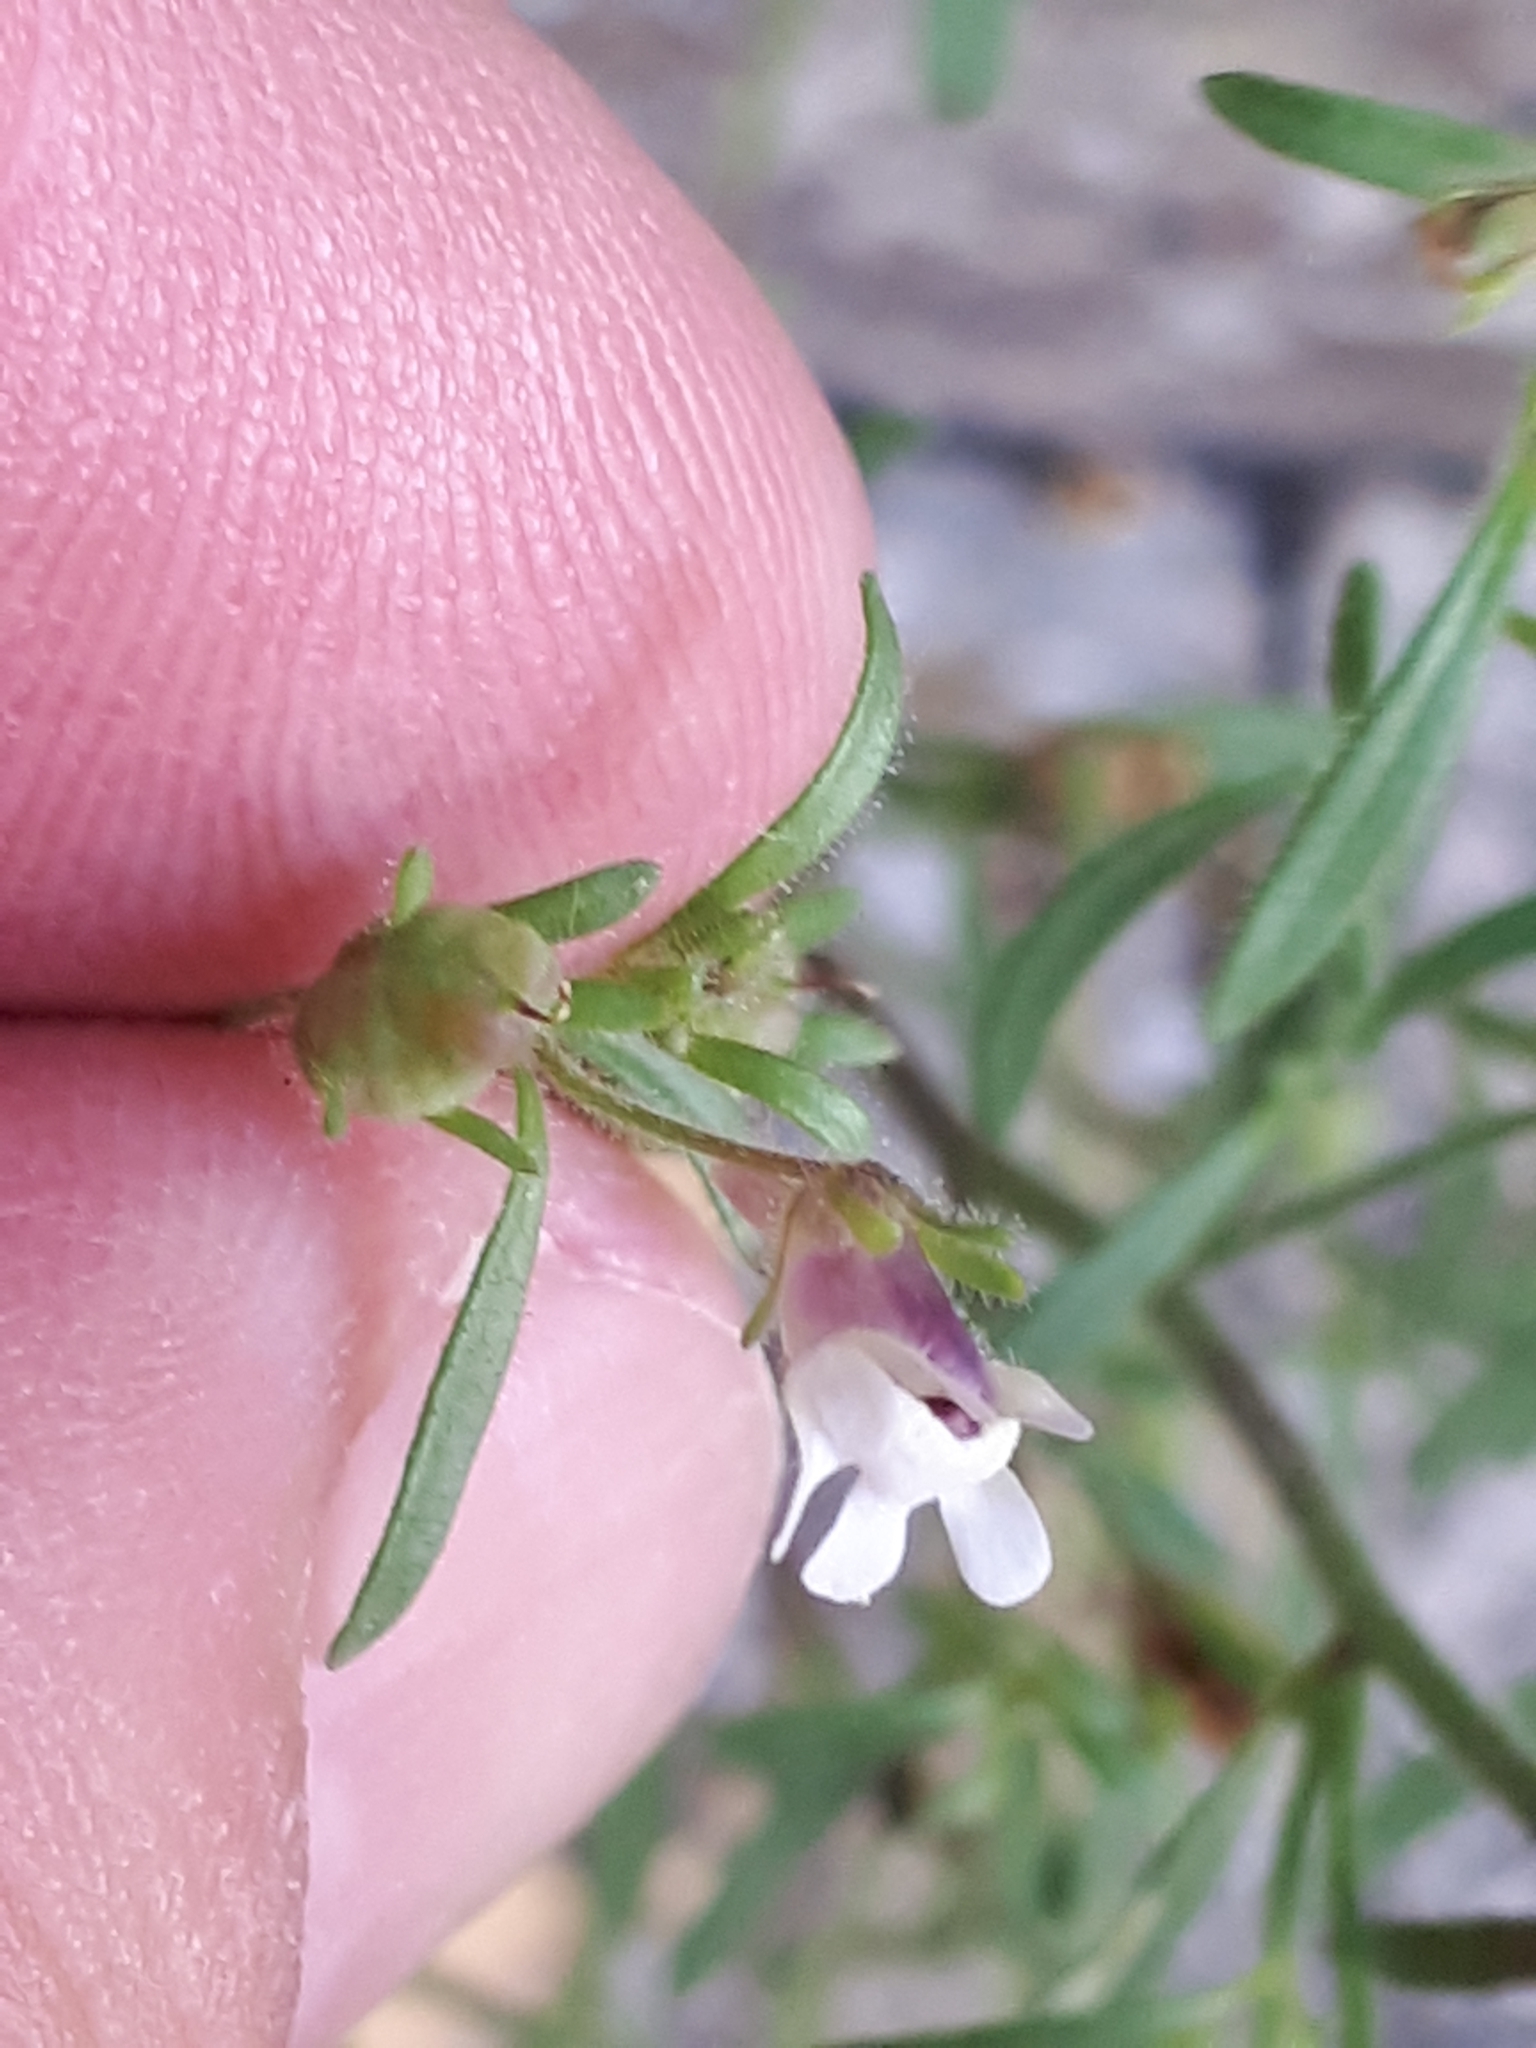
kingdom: Plantae
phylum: Tracheophyta
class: Magnoliopsida
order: Lamiales
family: Plantaginaceae
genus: Chaenorhinum
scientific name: Chaenorhinum minus
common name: Dwarf snapdragon
